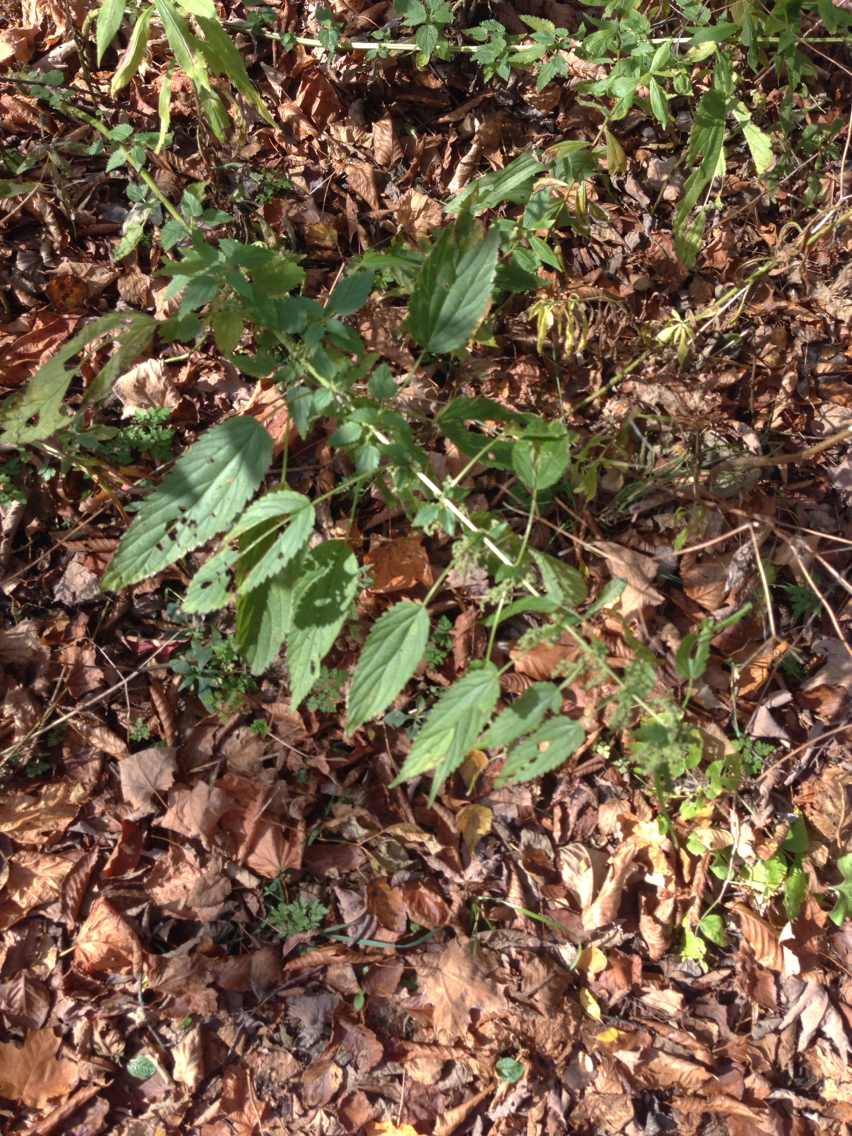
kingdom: Plantae
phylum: Tracheophyta
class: Magnoliopsida
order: Rosales
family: Urticaceae
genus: Urtica
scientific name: Urtica dioica
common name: Common nettle
